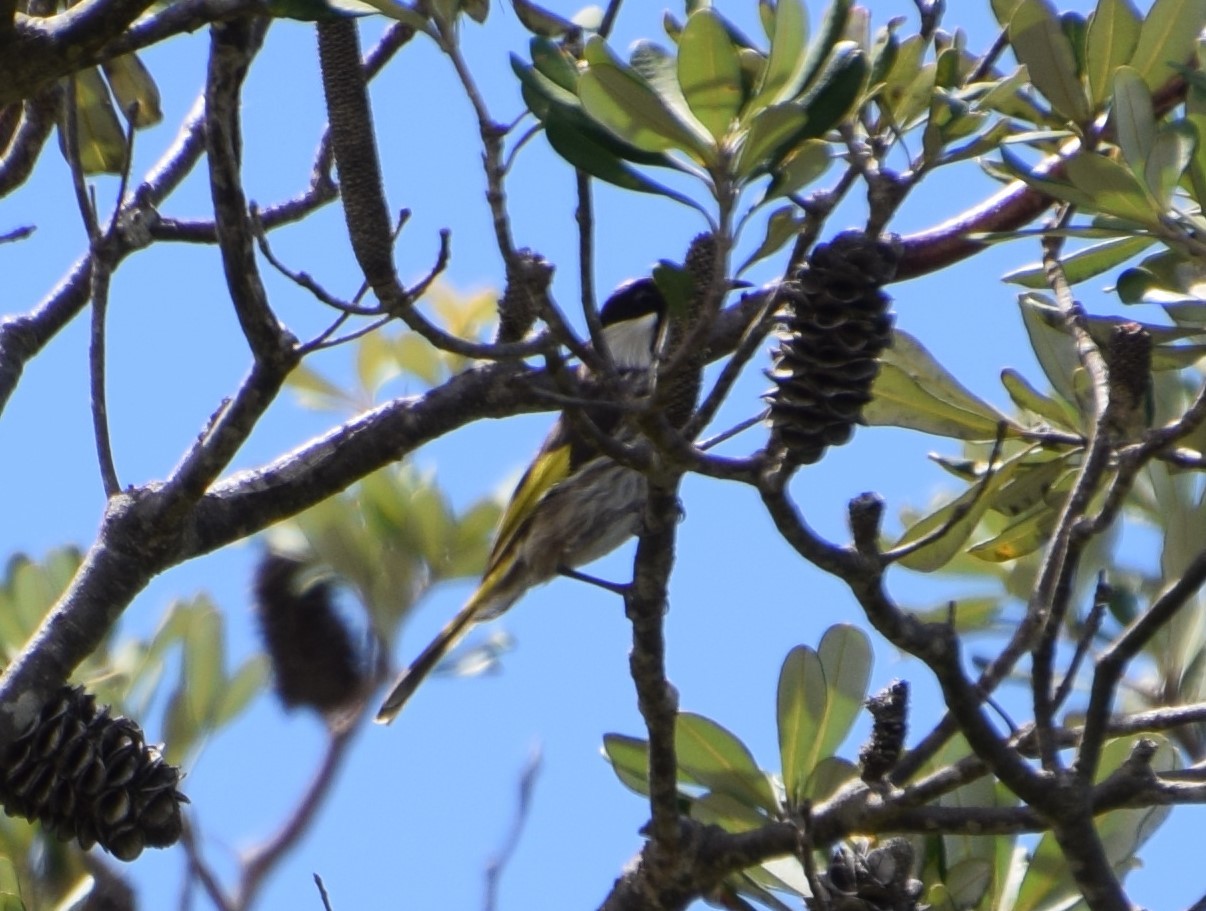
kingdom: Animalia
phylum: Chordata
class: Aves
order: Passeriformes
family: Meliphagidae
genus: Phylidonyris
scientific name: Phylidonyris niger
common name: White-cheeked honeyeater
